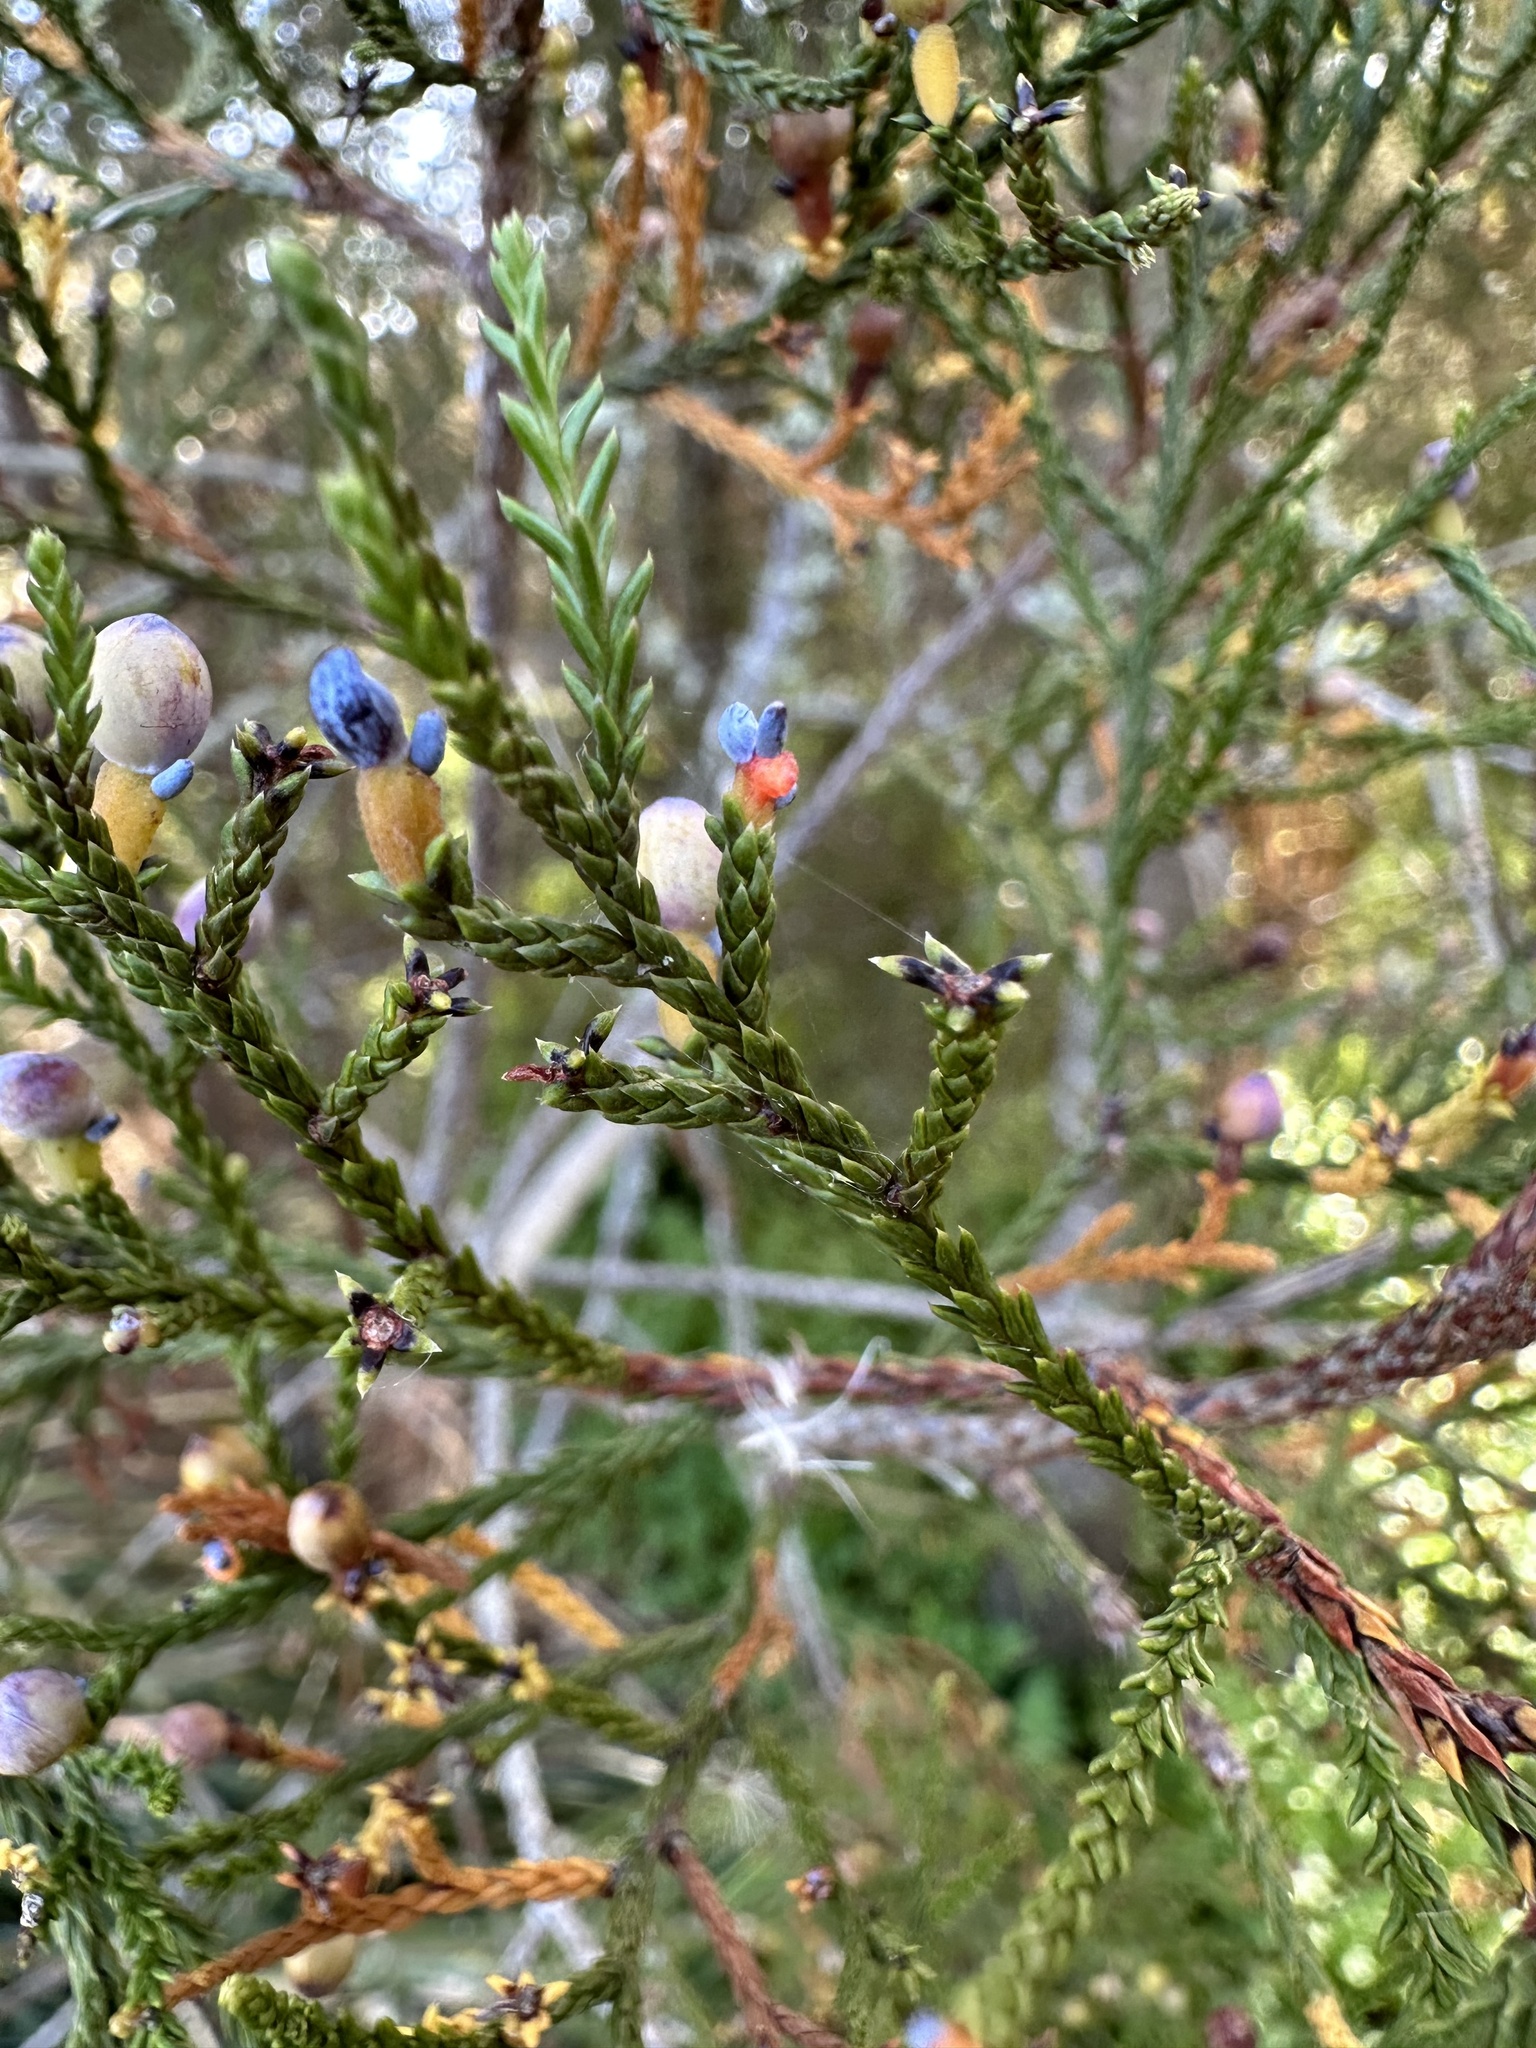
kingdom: Plantae
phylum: Tracheophyta
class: Pinopsida
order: Pinales
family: Podocarpaceae
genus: Dacrycarpus
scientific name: Dacrycarpus dacrydioides
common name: White pine
